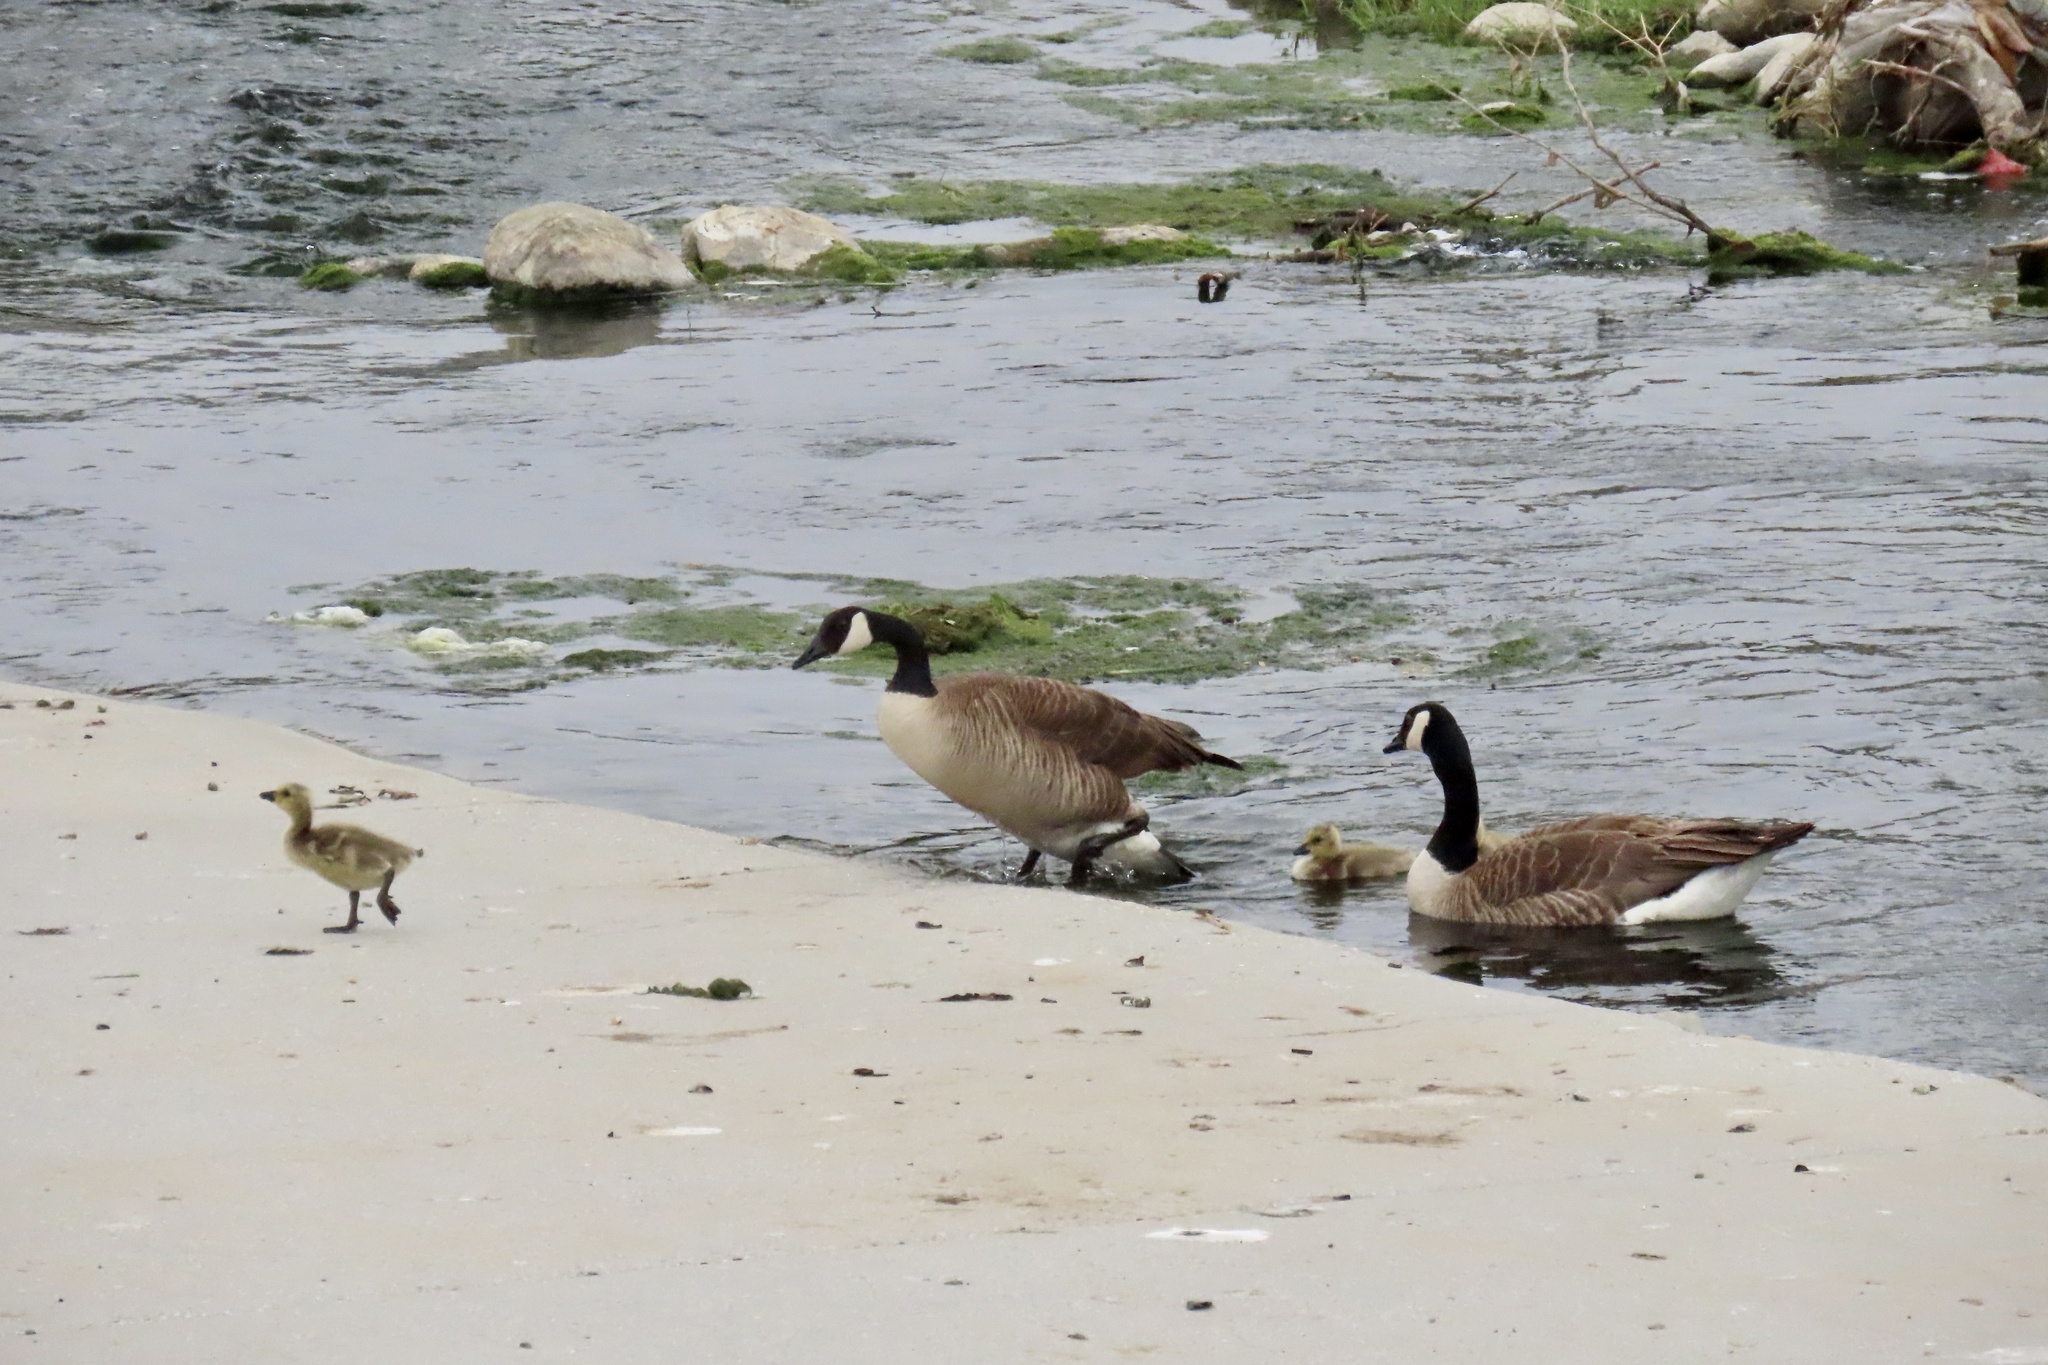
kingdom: Animalia
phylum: Chordata
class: Aves
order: Anseriformes
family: Anatidae
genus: Branta
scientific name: Branta canadensis
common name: Canada goose
